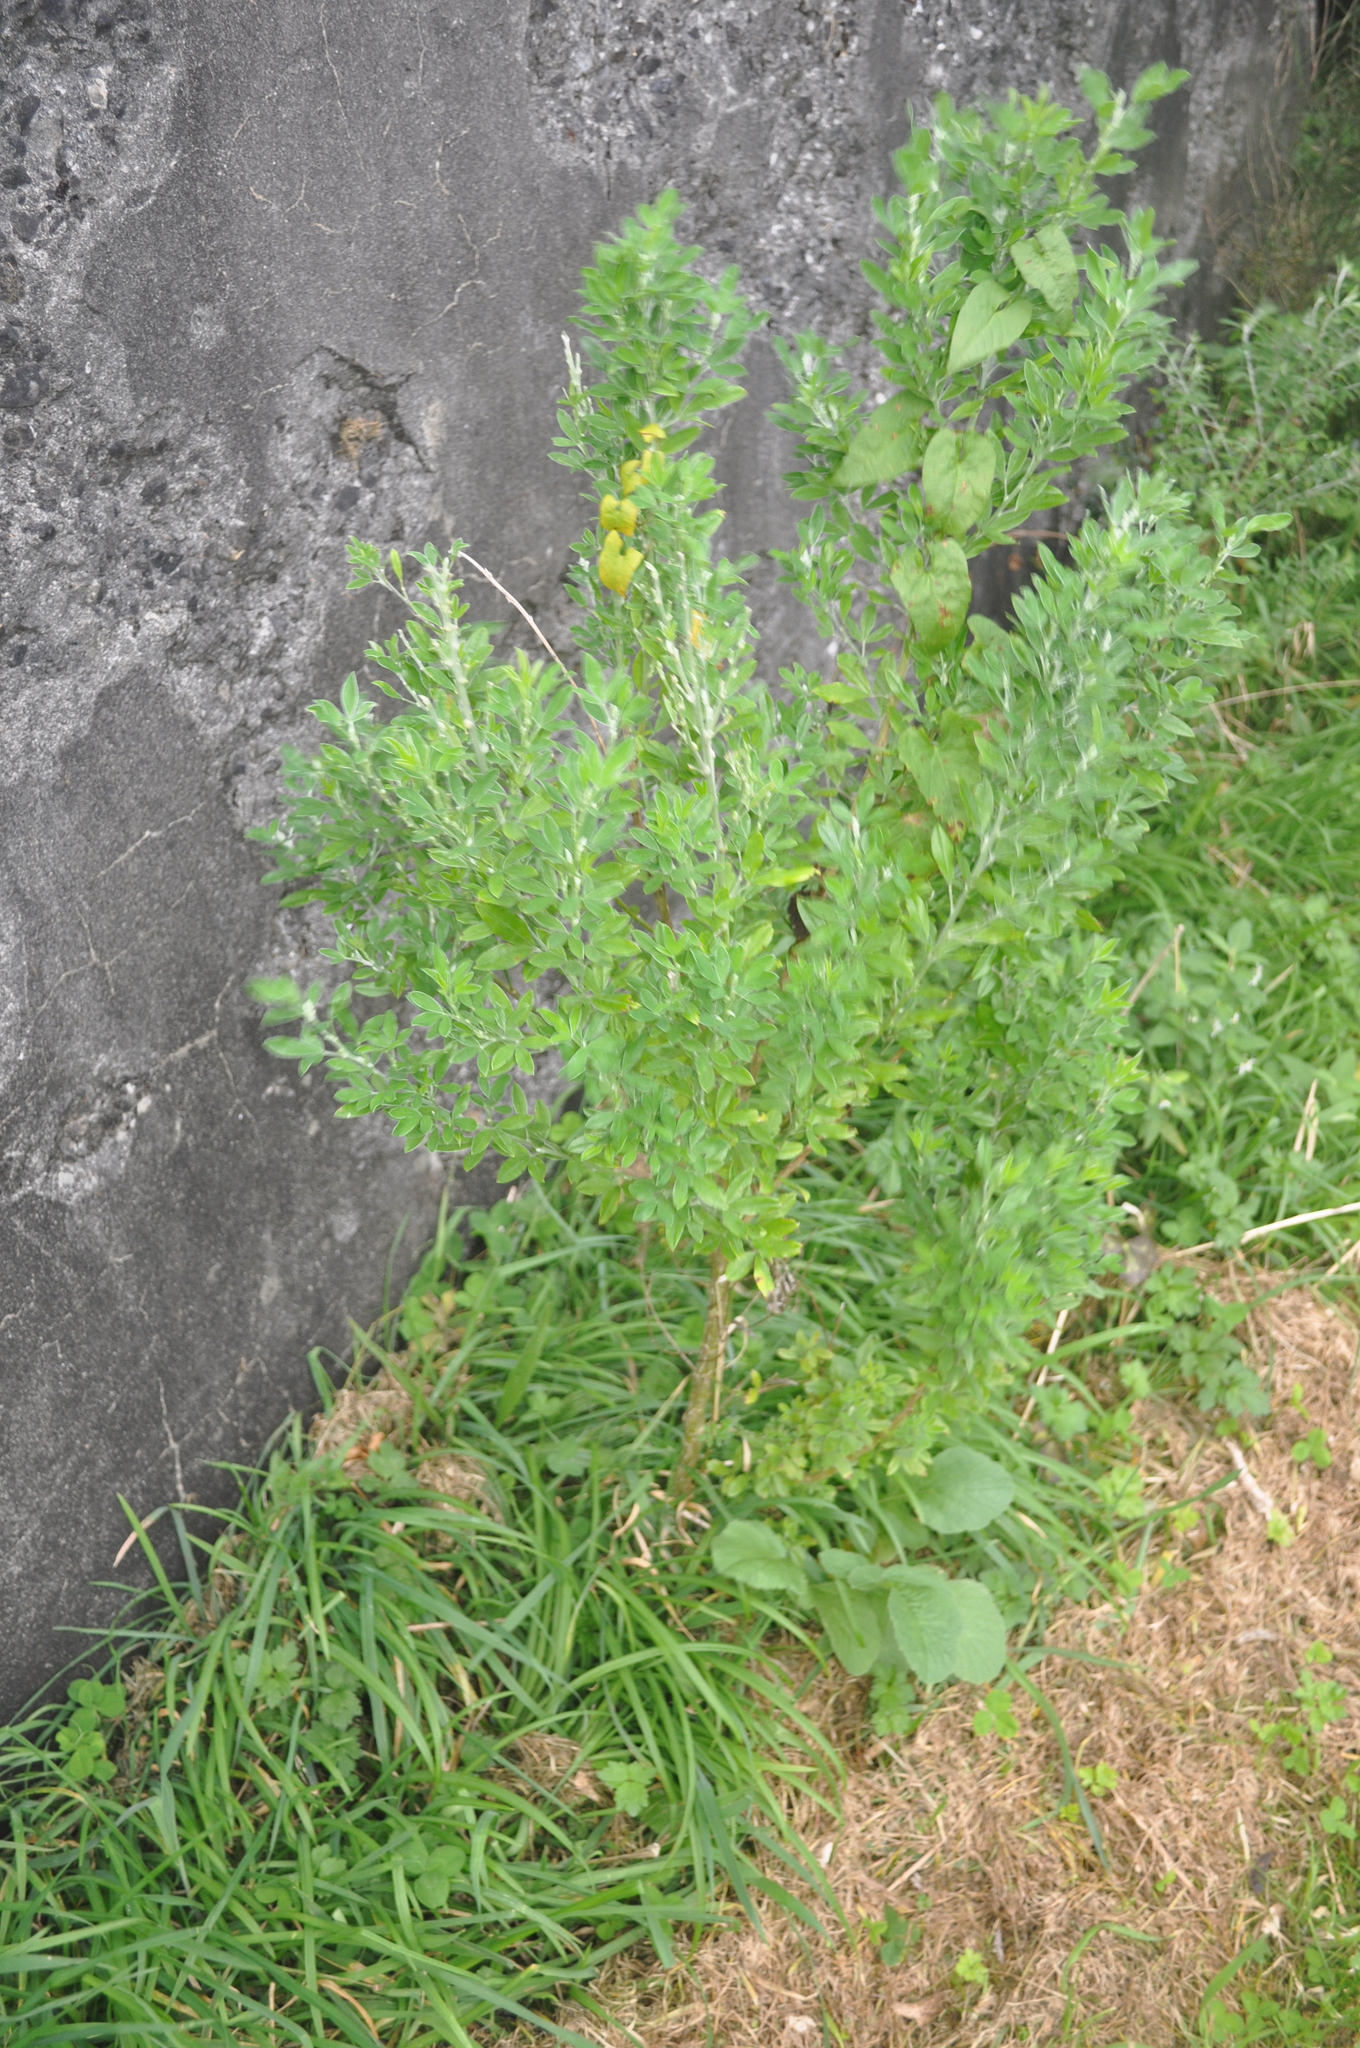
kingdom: Plantae
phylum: Tracheophyta
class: Magnoliopsida
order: Fabales
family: Fabaceae
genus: Genista
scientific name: Genista monspessulana
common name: Montpellier broom
